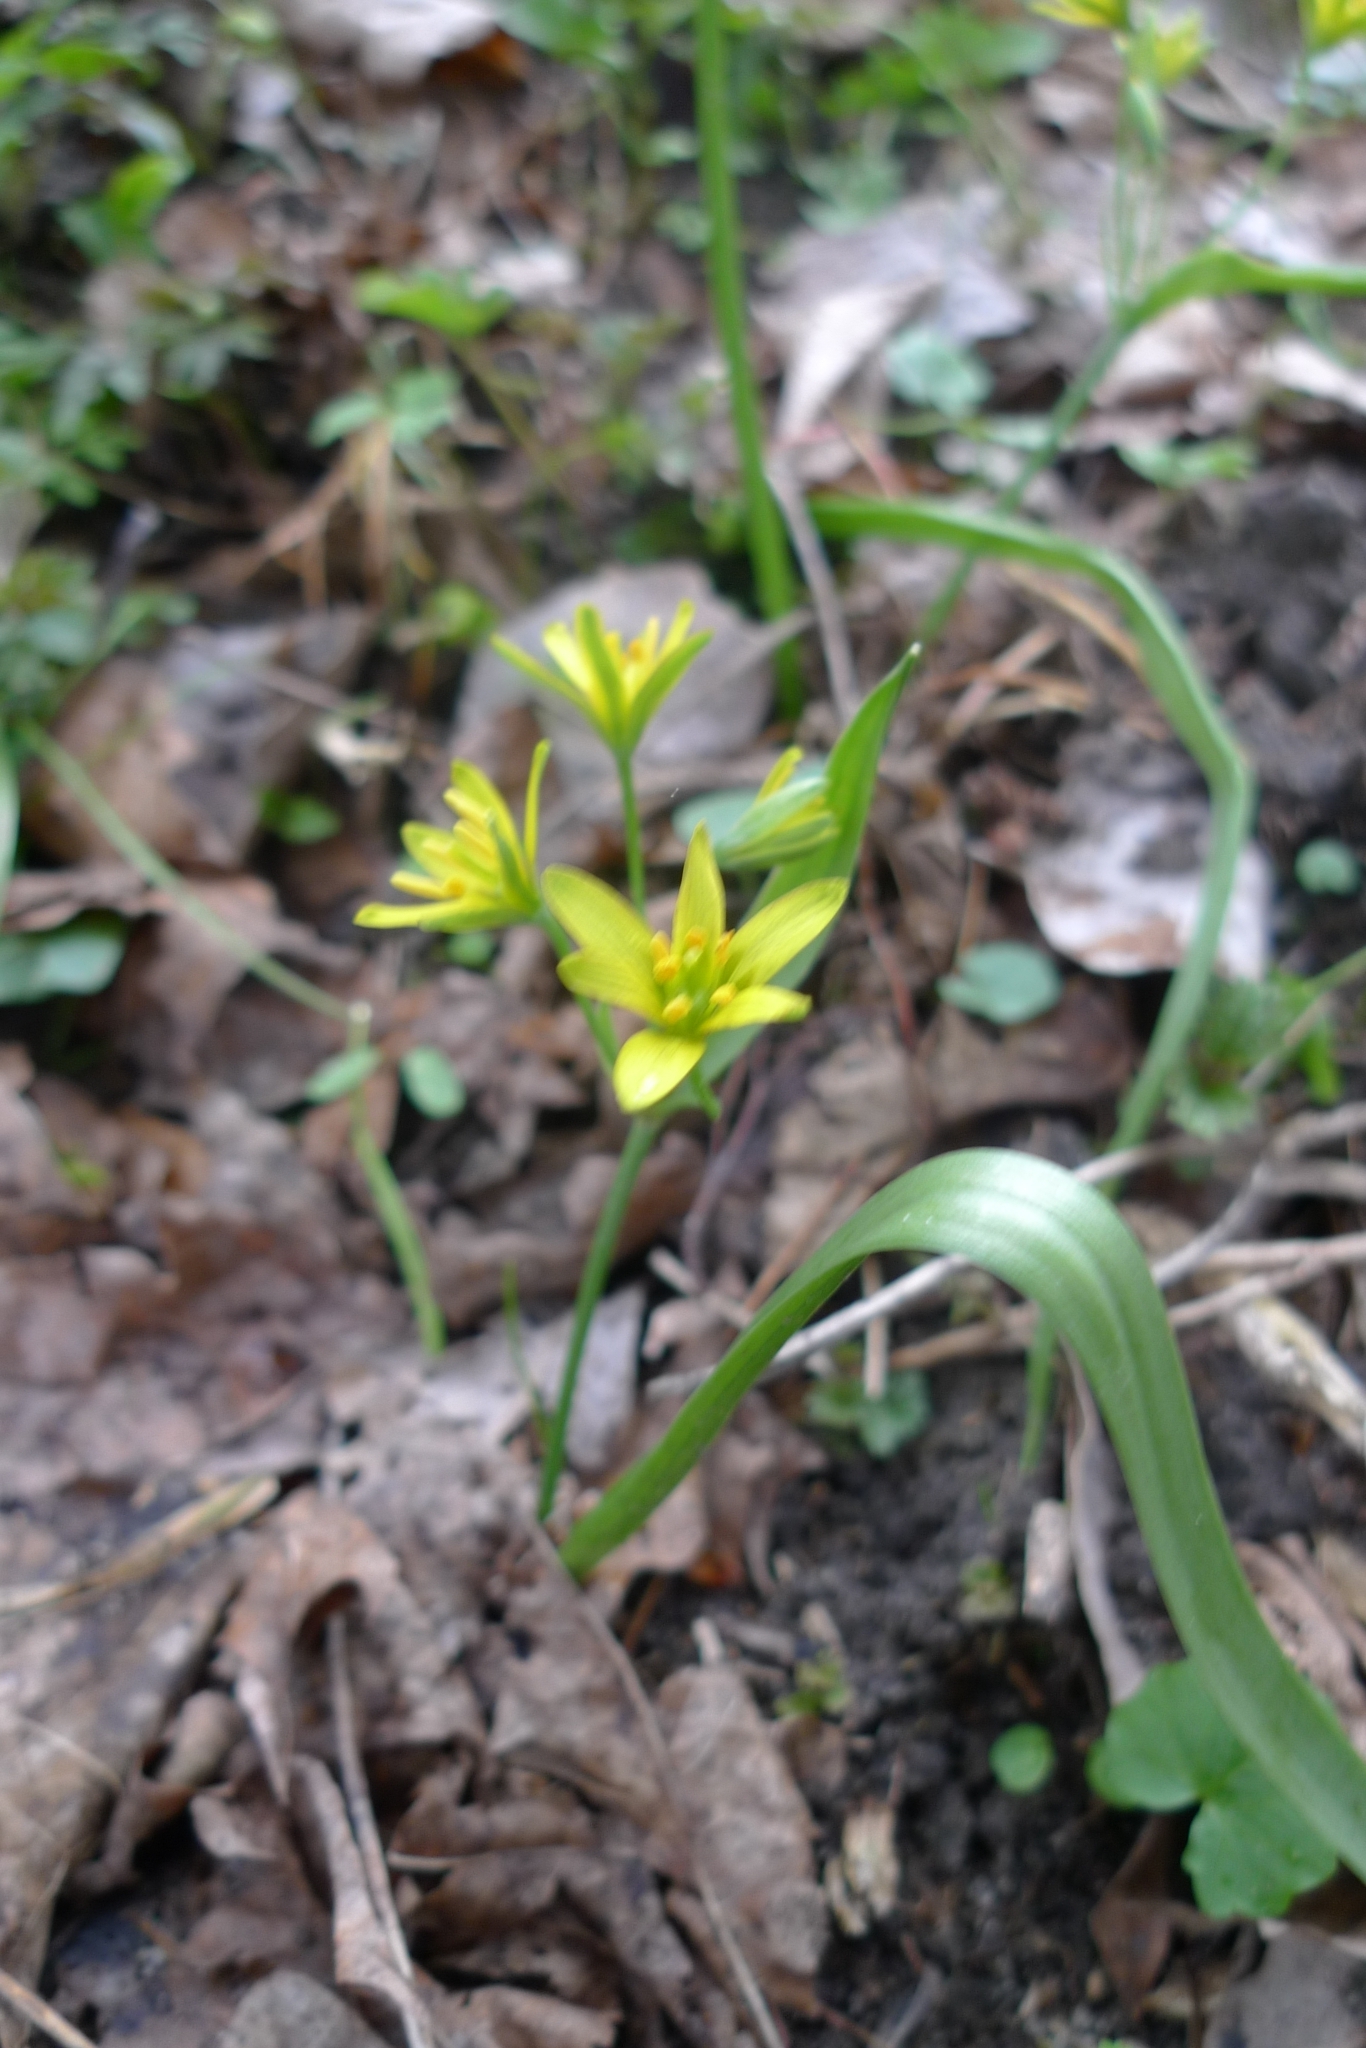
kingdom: Plantae
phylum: Tracheophyta
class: Liliopsida
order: Liliales
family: Liliaceae
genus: Gagea
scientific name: Gagea lutea
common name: Yellow star-of-bethlehem
